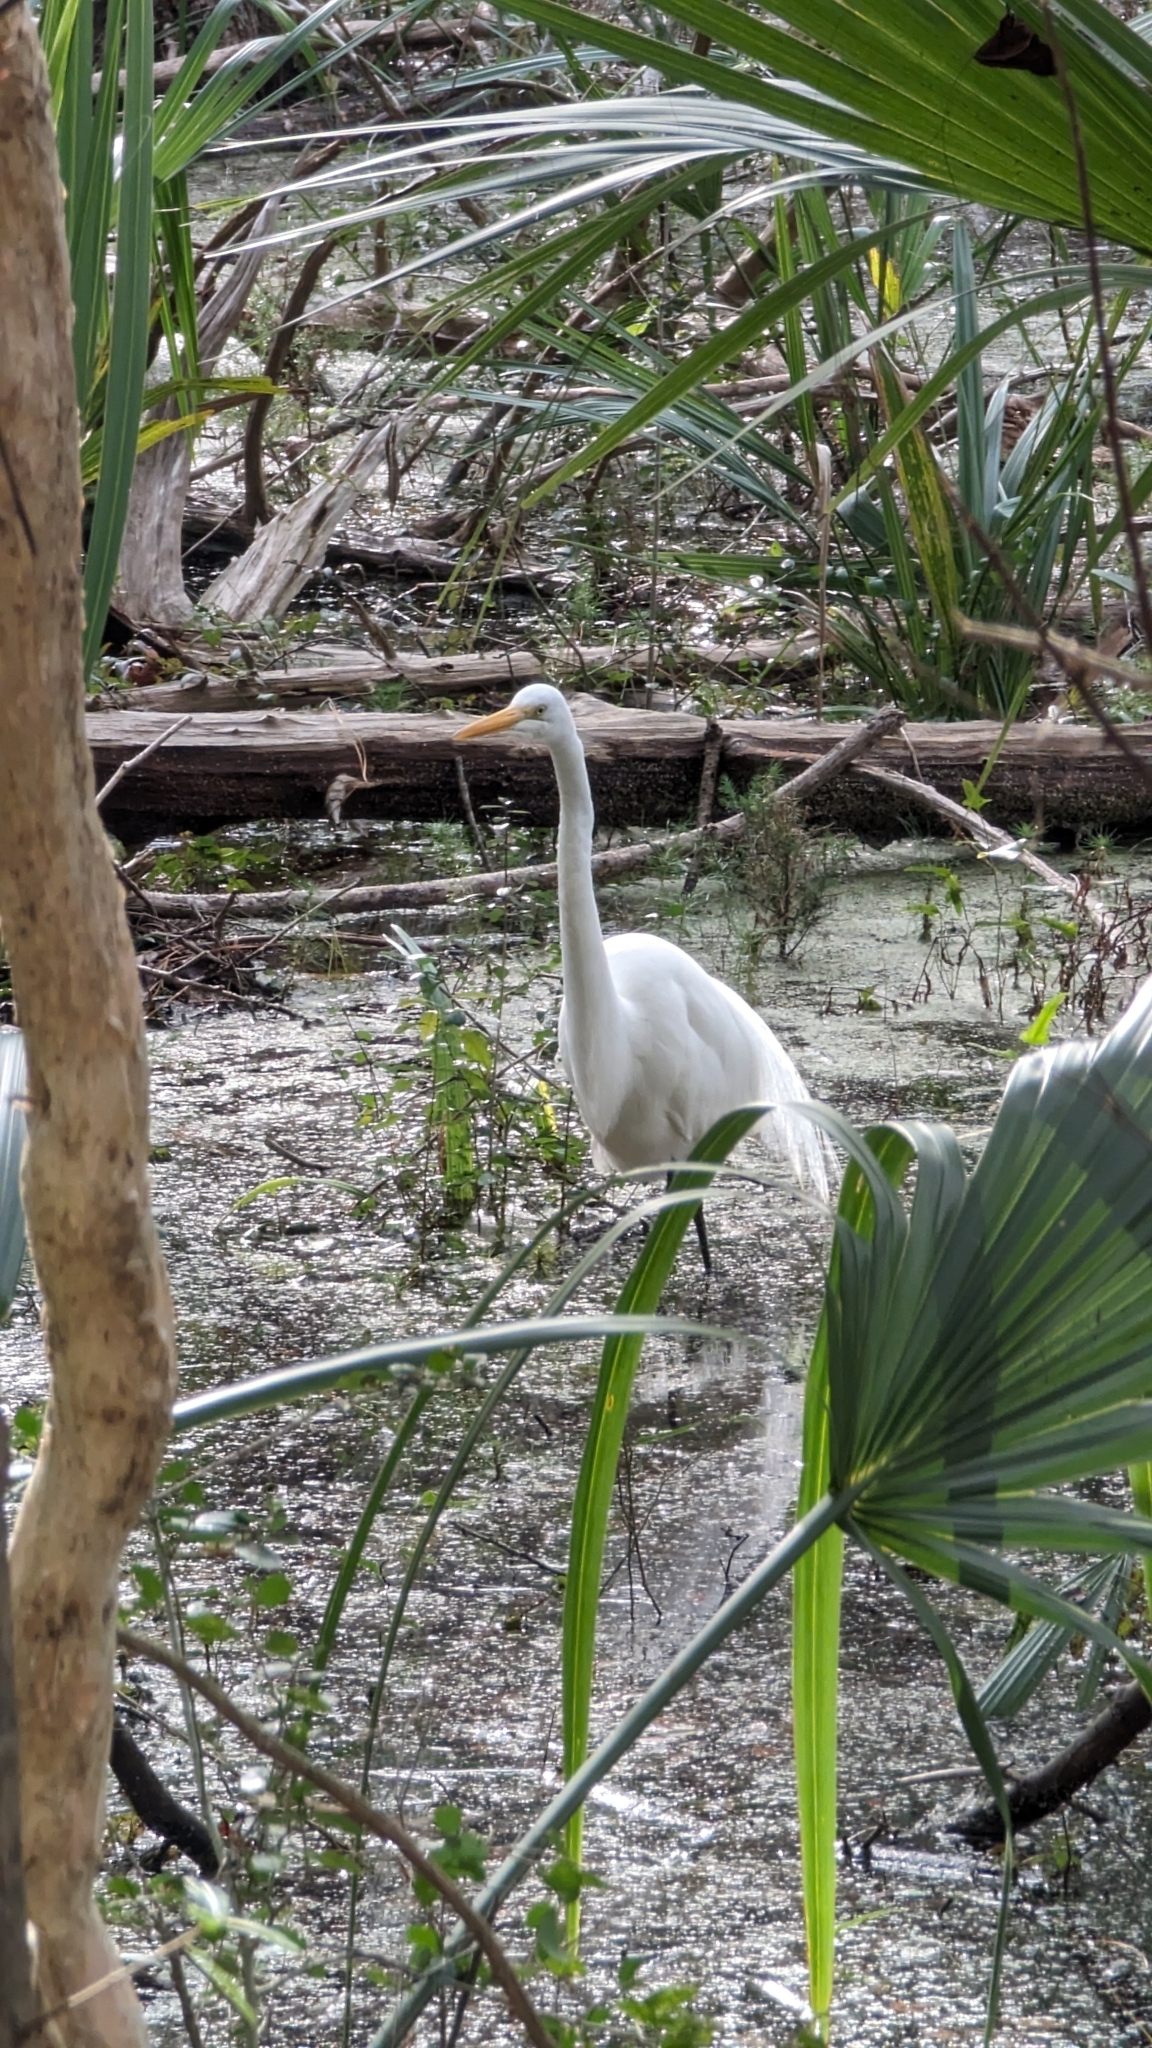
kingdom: Animalia
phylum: Chordata
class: Aves
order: Pelecaniformes
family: Ardeidae
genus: Ardea
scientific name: Ardea alba
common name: Great egret
